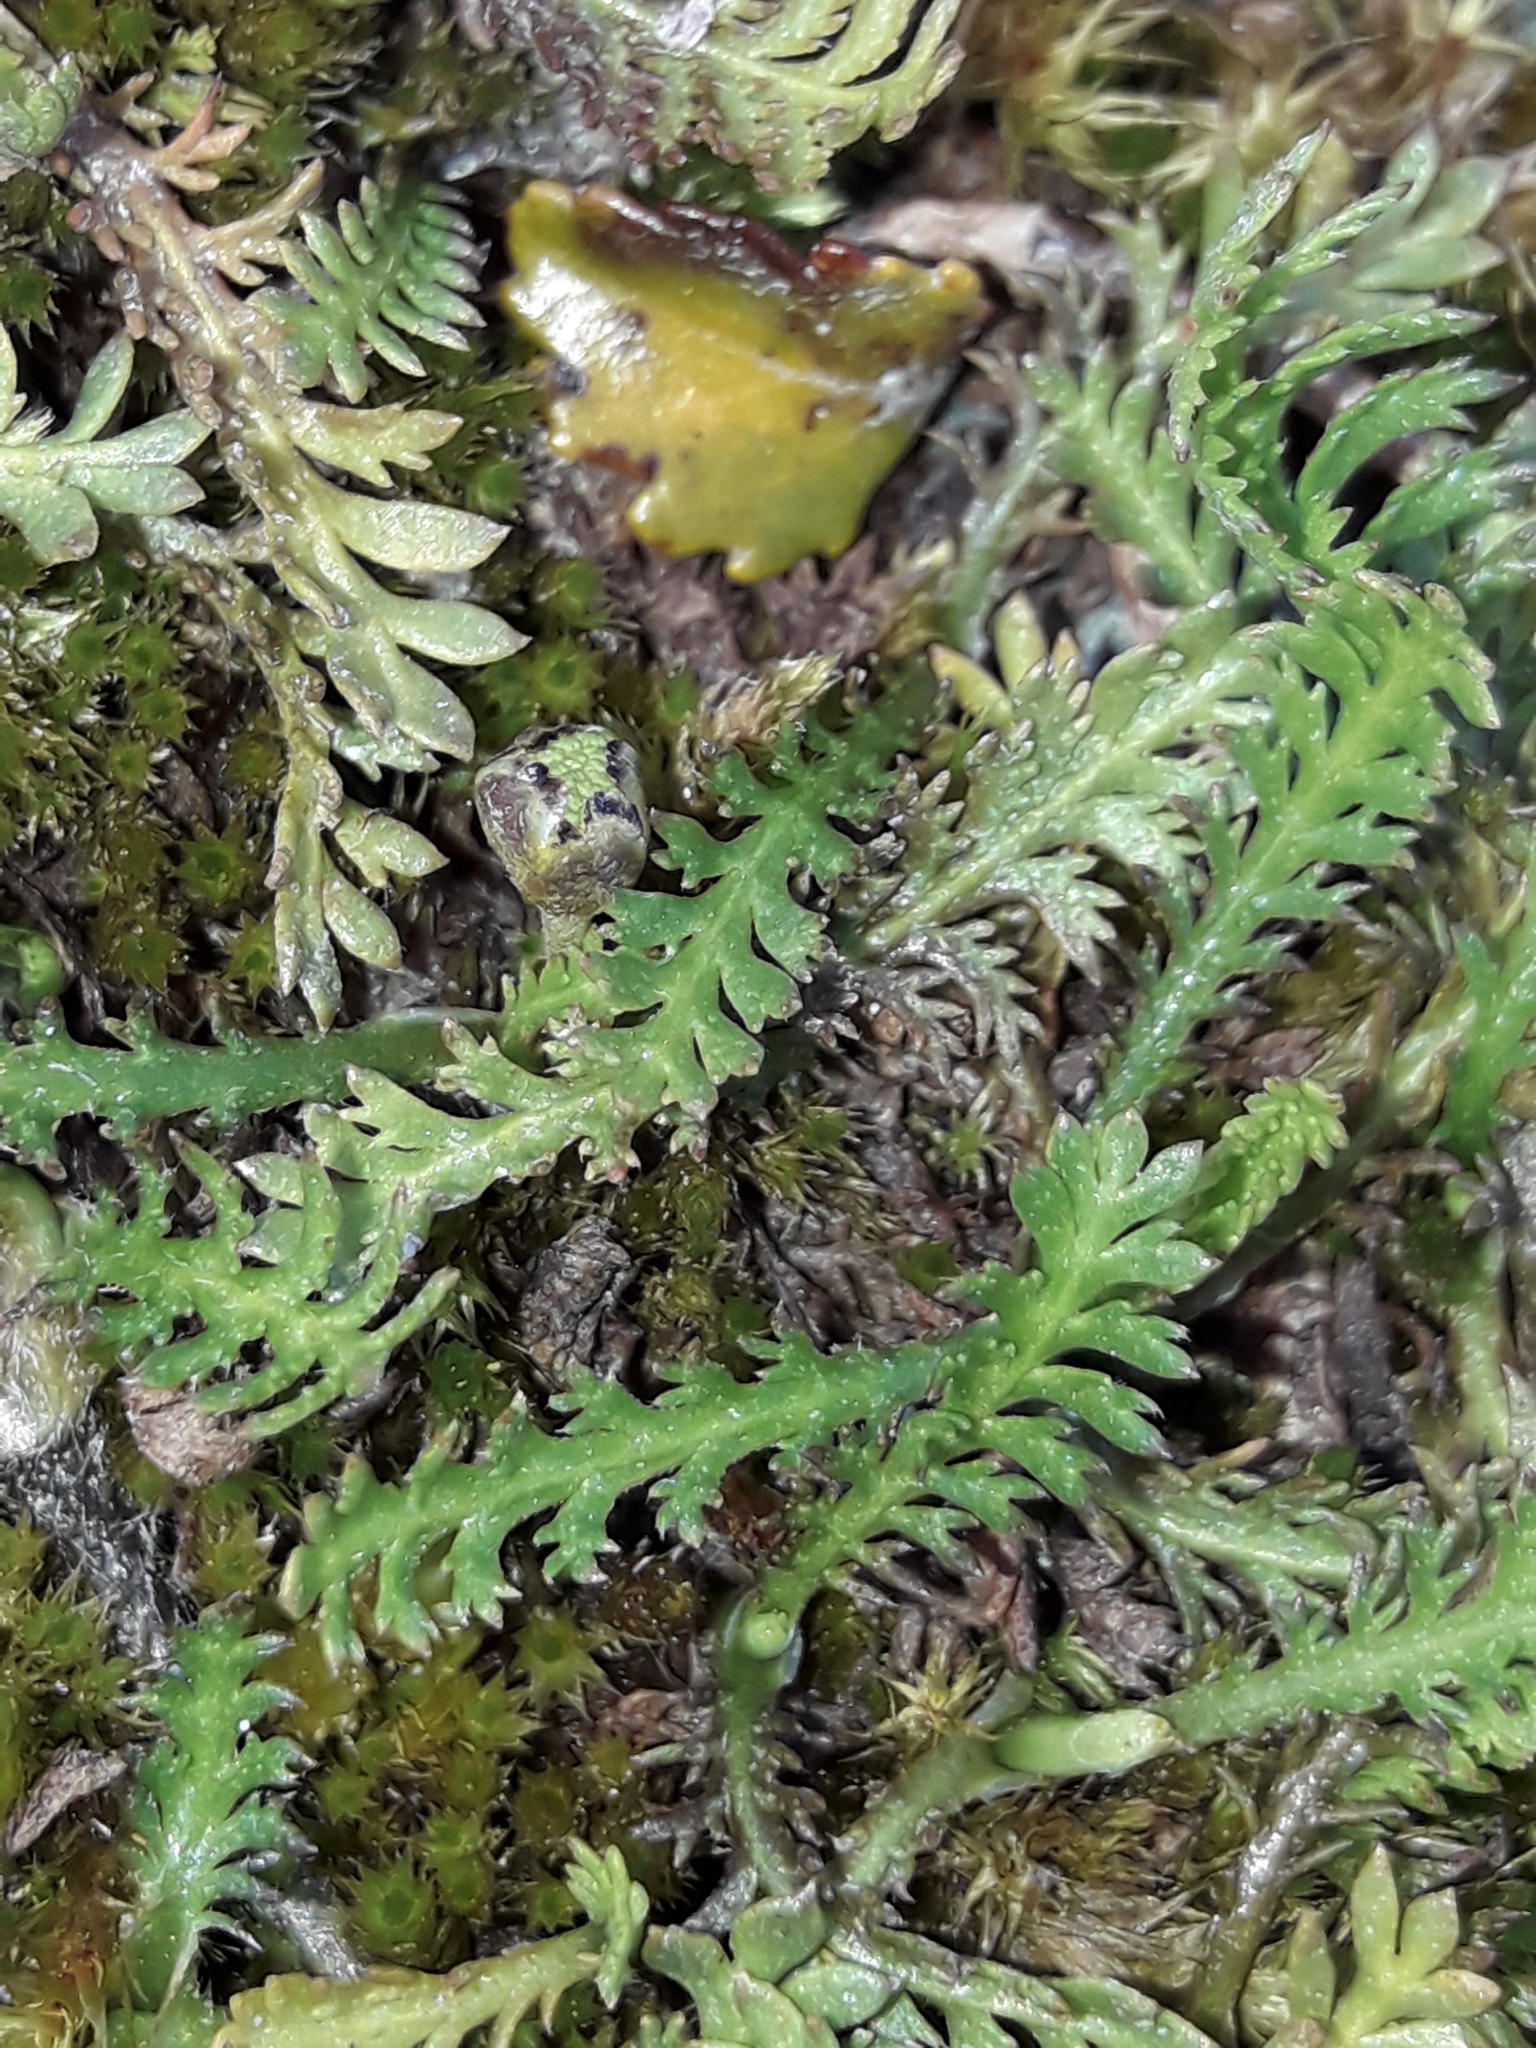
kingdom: Plantae
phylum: Tracheophyta
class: Magnoliopsida
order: Asterales
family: Asteraceae
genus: Leptinella
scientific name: Leptinella squalida
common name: New zealand brass-buttons
